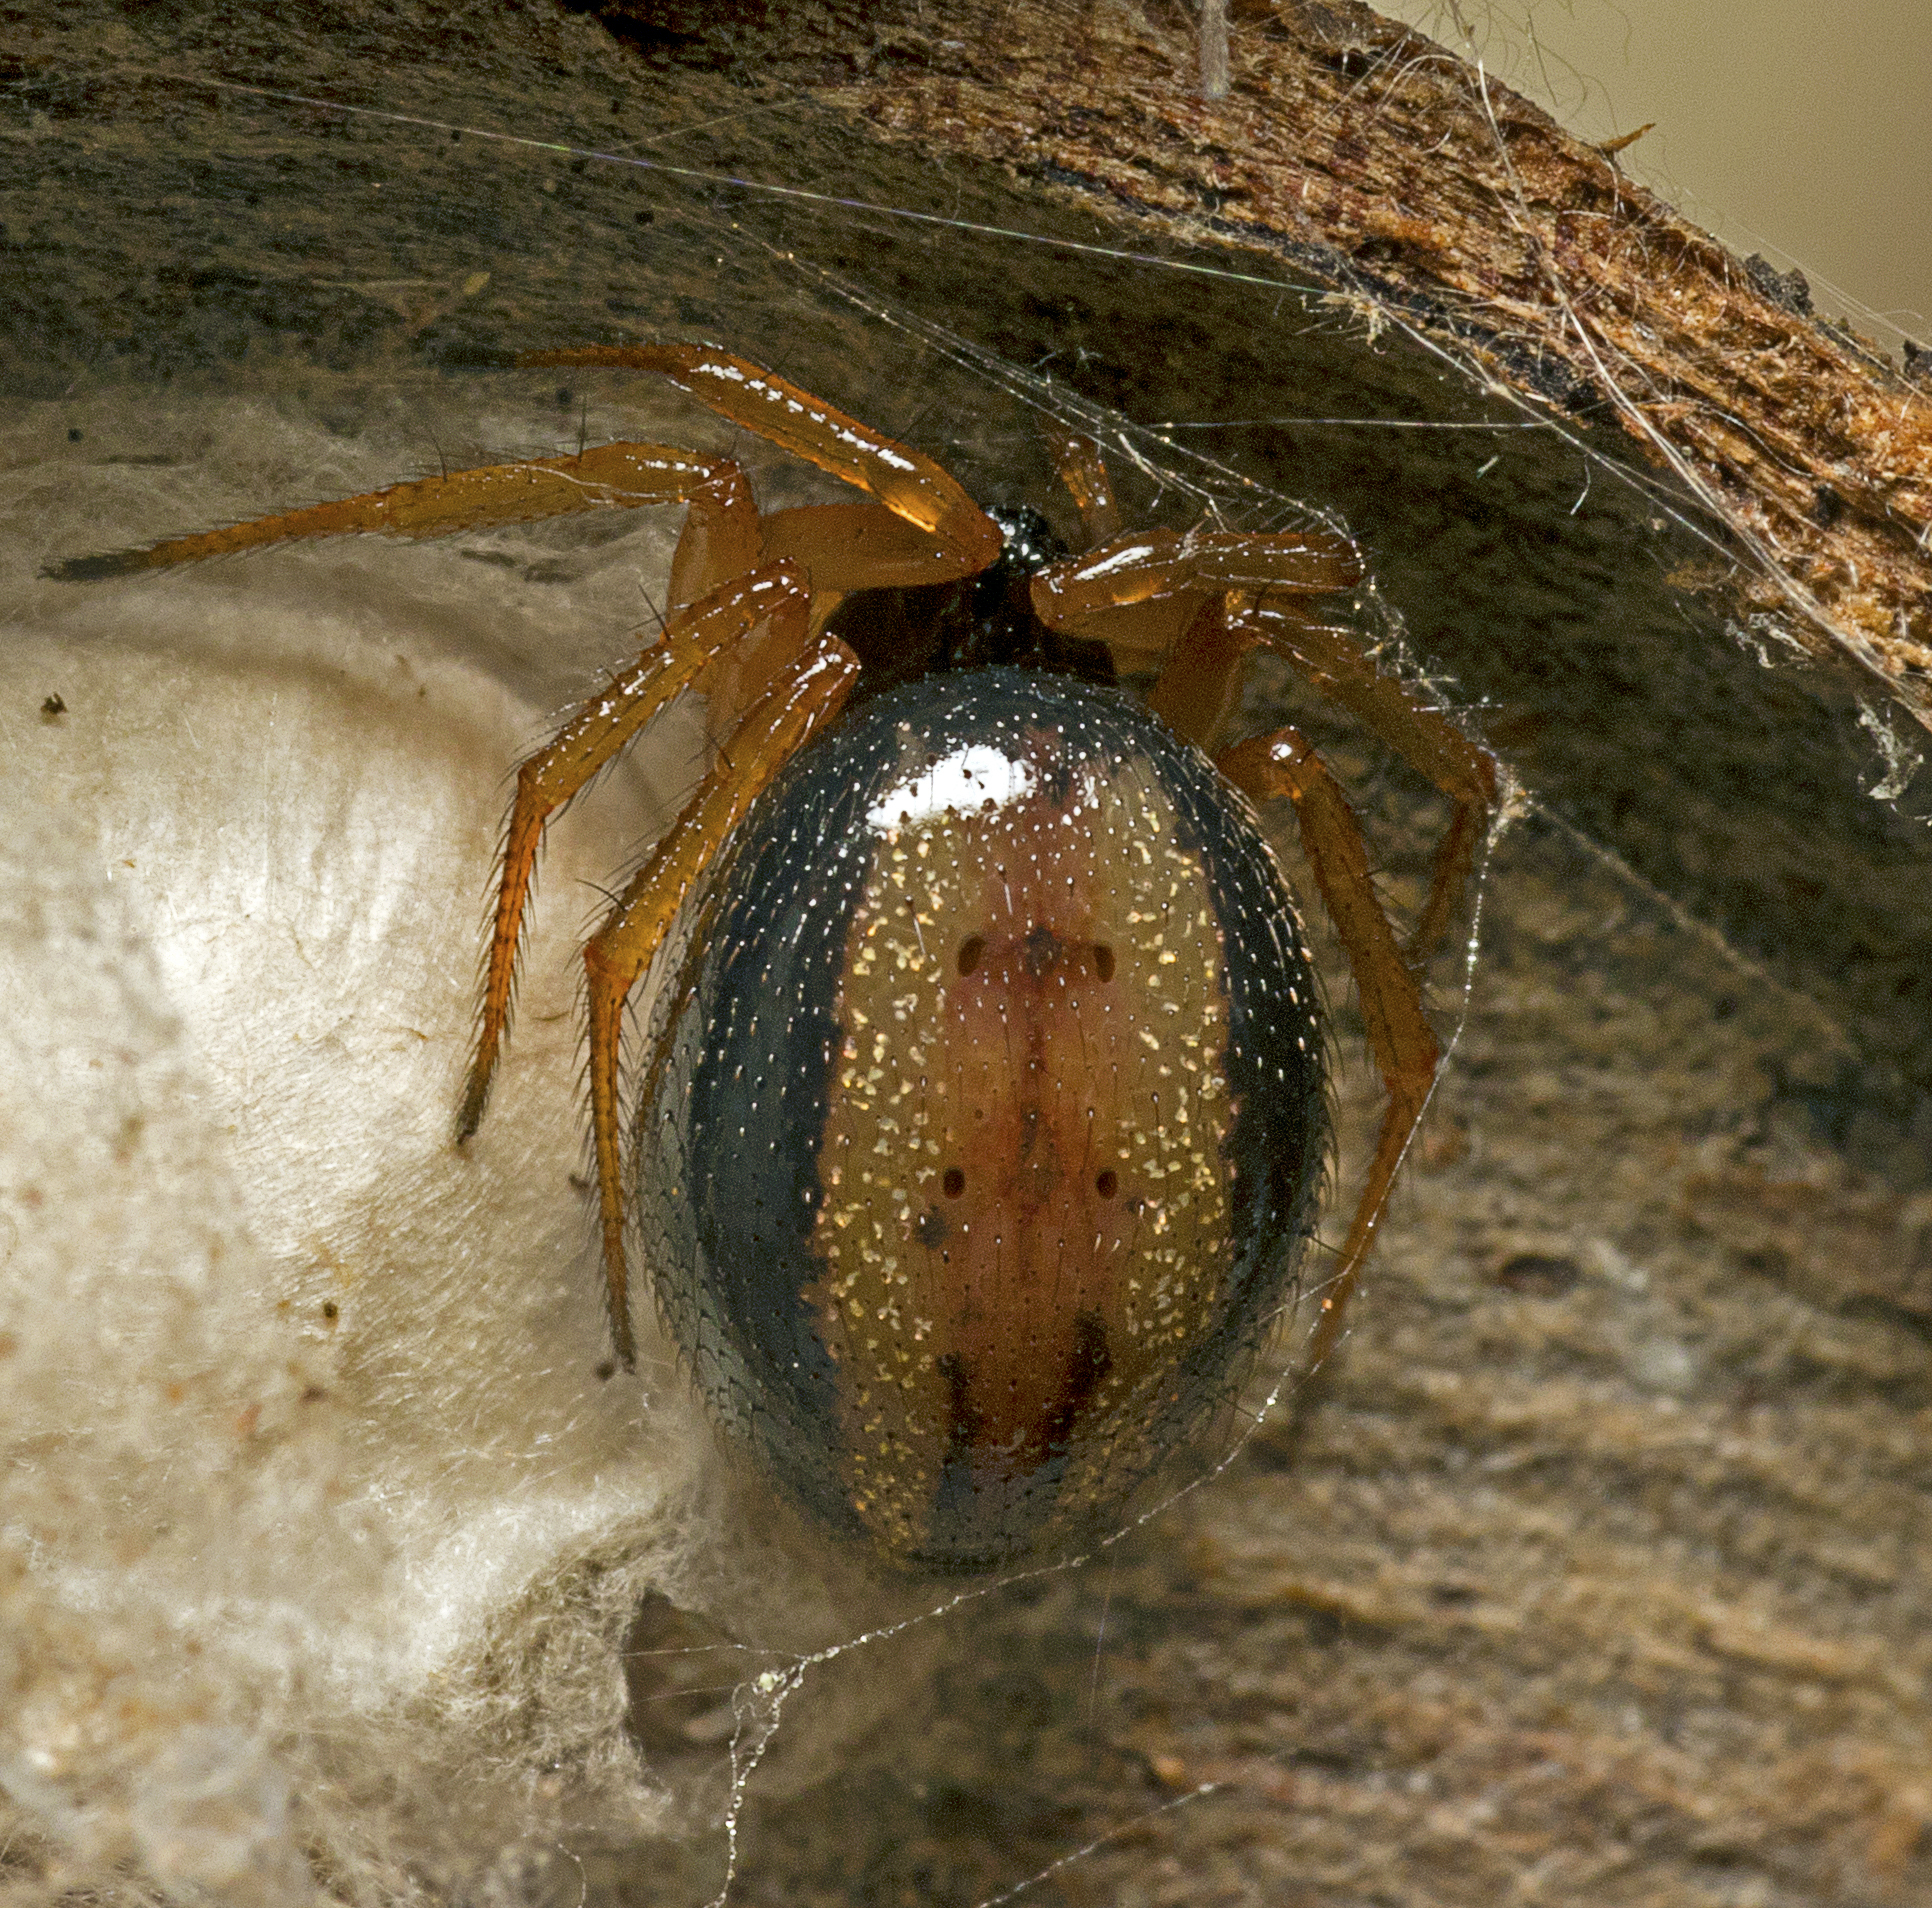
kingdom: Animalia
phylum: Arthropoda
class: Arachnida
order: Araneae
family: Theridiidae
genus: Euryopis
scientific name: Euryopis umbilicata
